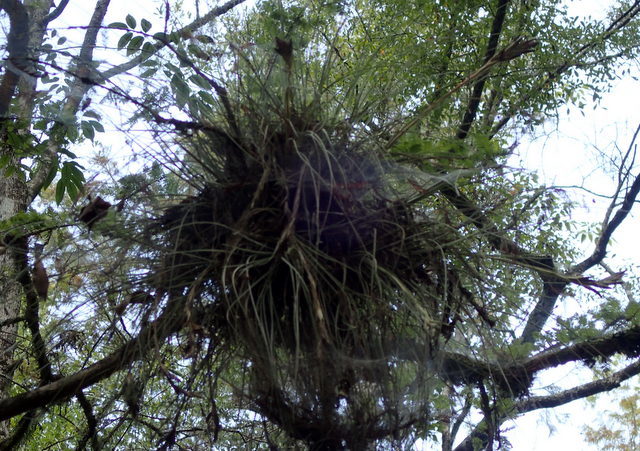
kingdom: Plantae
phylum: Tracheophyta
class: Liliopsida
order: Poales
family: Bromeliaceae
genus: Tillandsia
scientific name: Tillandsia bartramii
